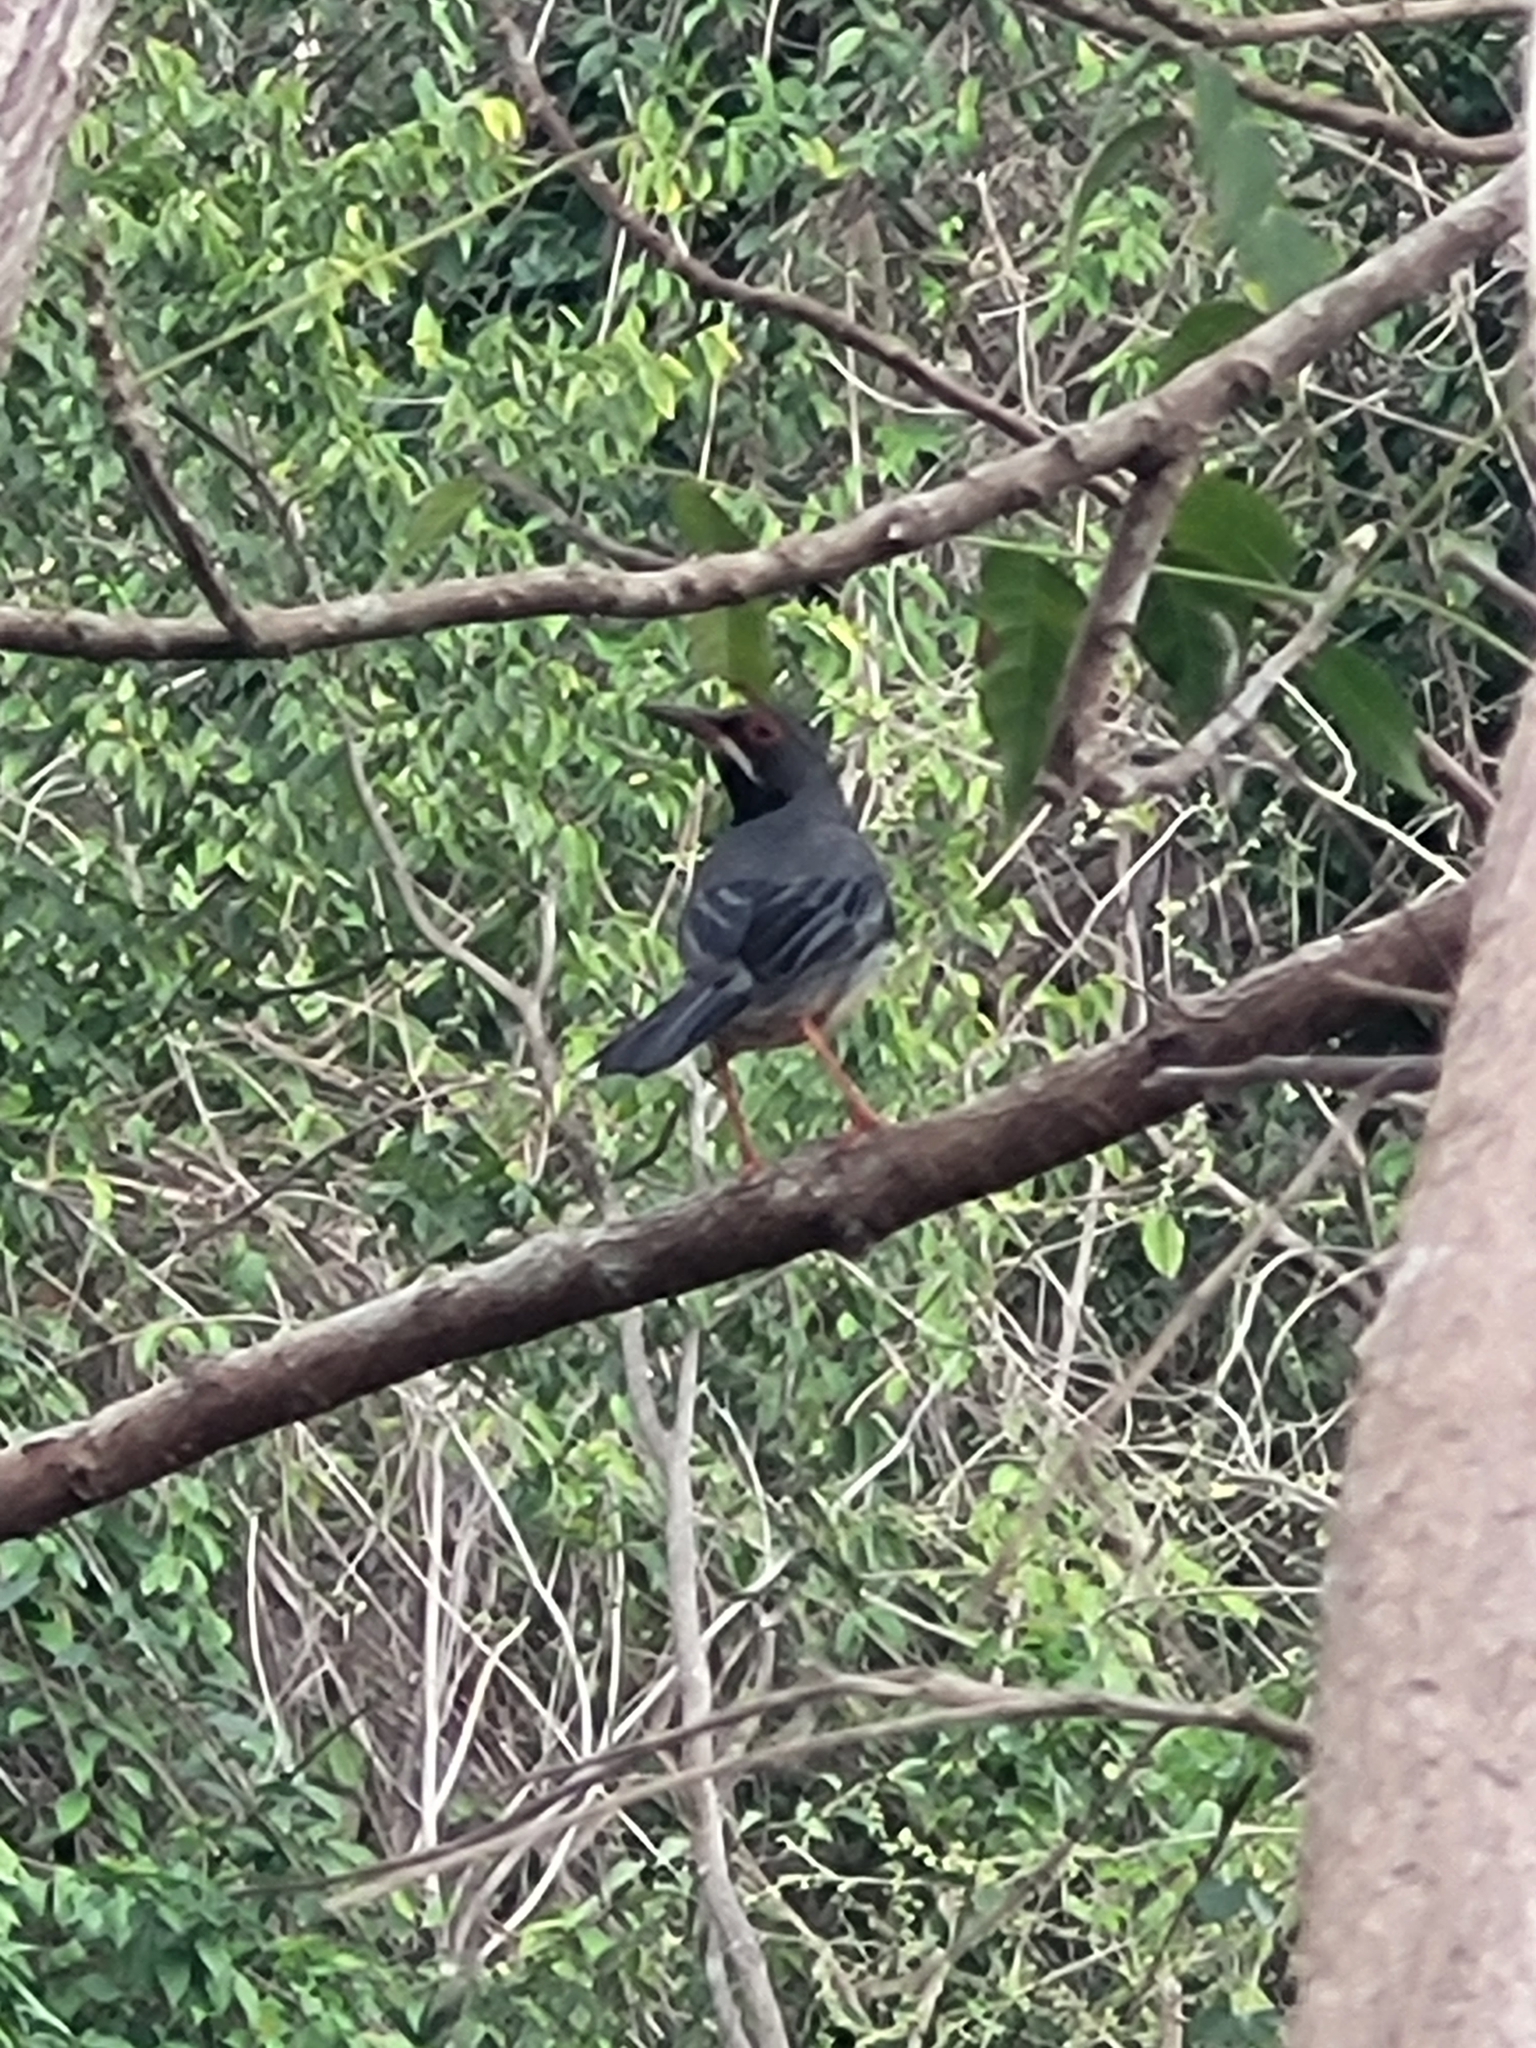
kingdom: Animalia
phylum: Chordata
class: Aves
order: Passeriformes
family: Turdidae
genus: Turdus
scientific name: Turdus plumbeus
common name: Red-legged thrush
